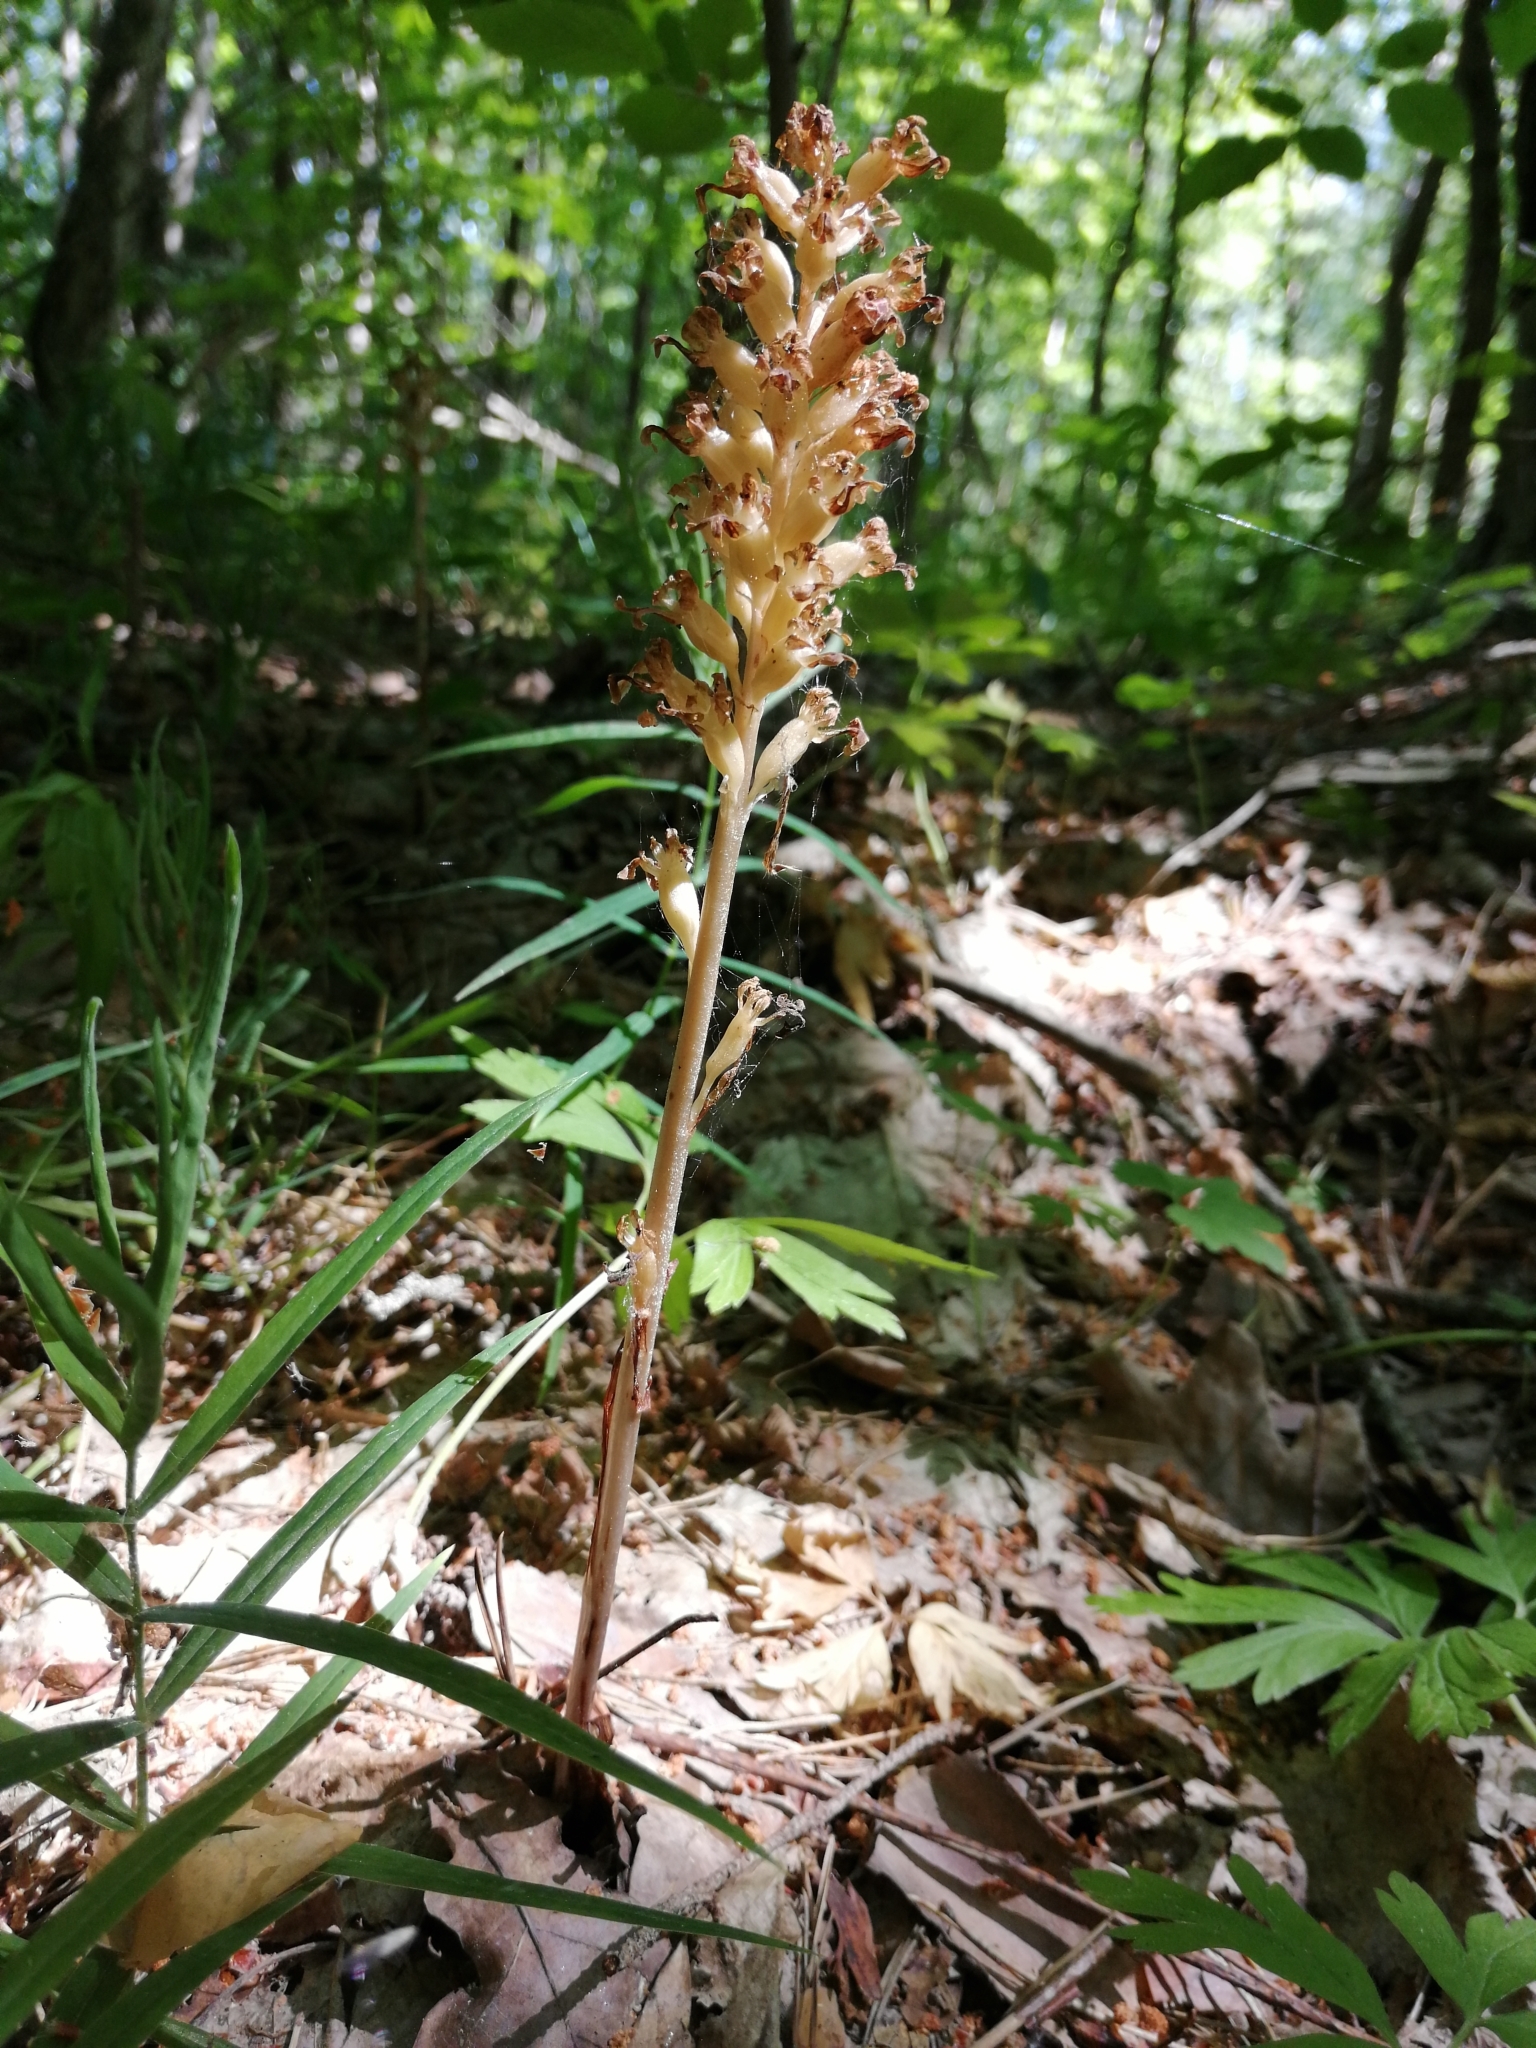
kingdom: Plantae
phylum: Tracheophyta
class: Liliopsida
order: Asparagales
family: Orchidaceae
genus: Neottia
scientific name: Neottia nidus-avis
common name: Bird's-nest orchid
